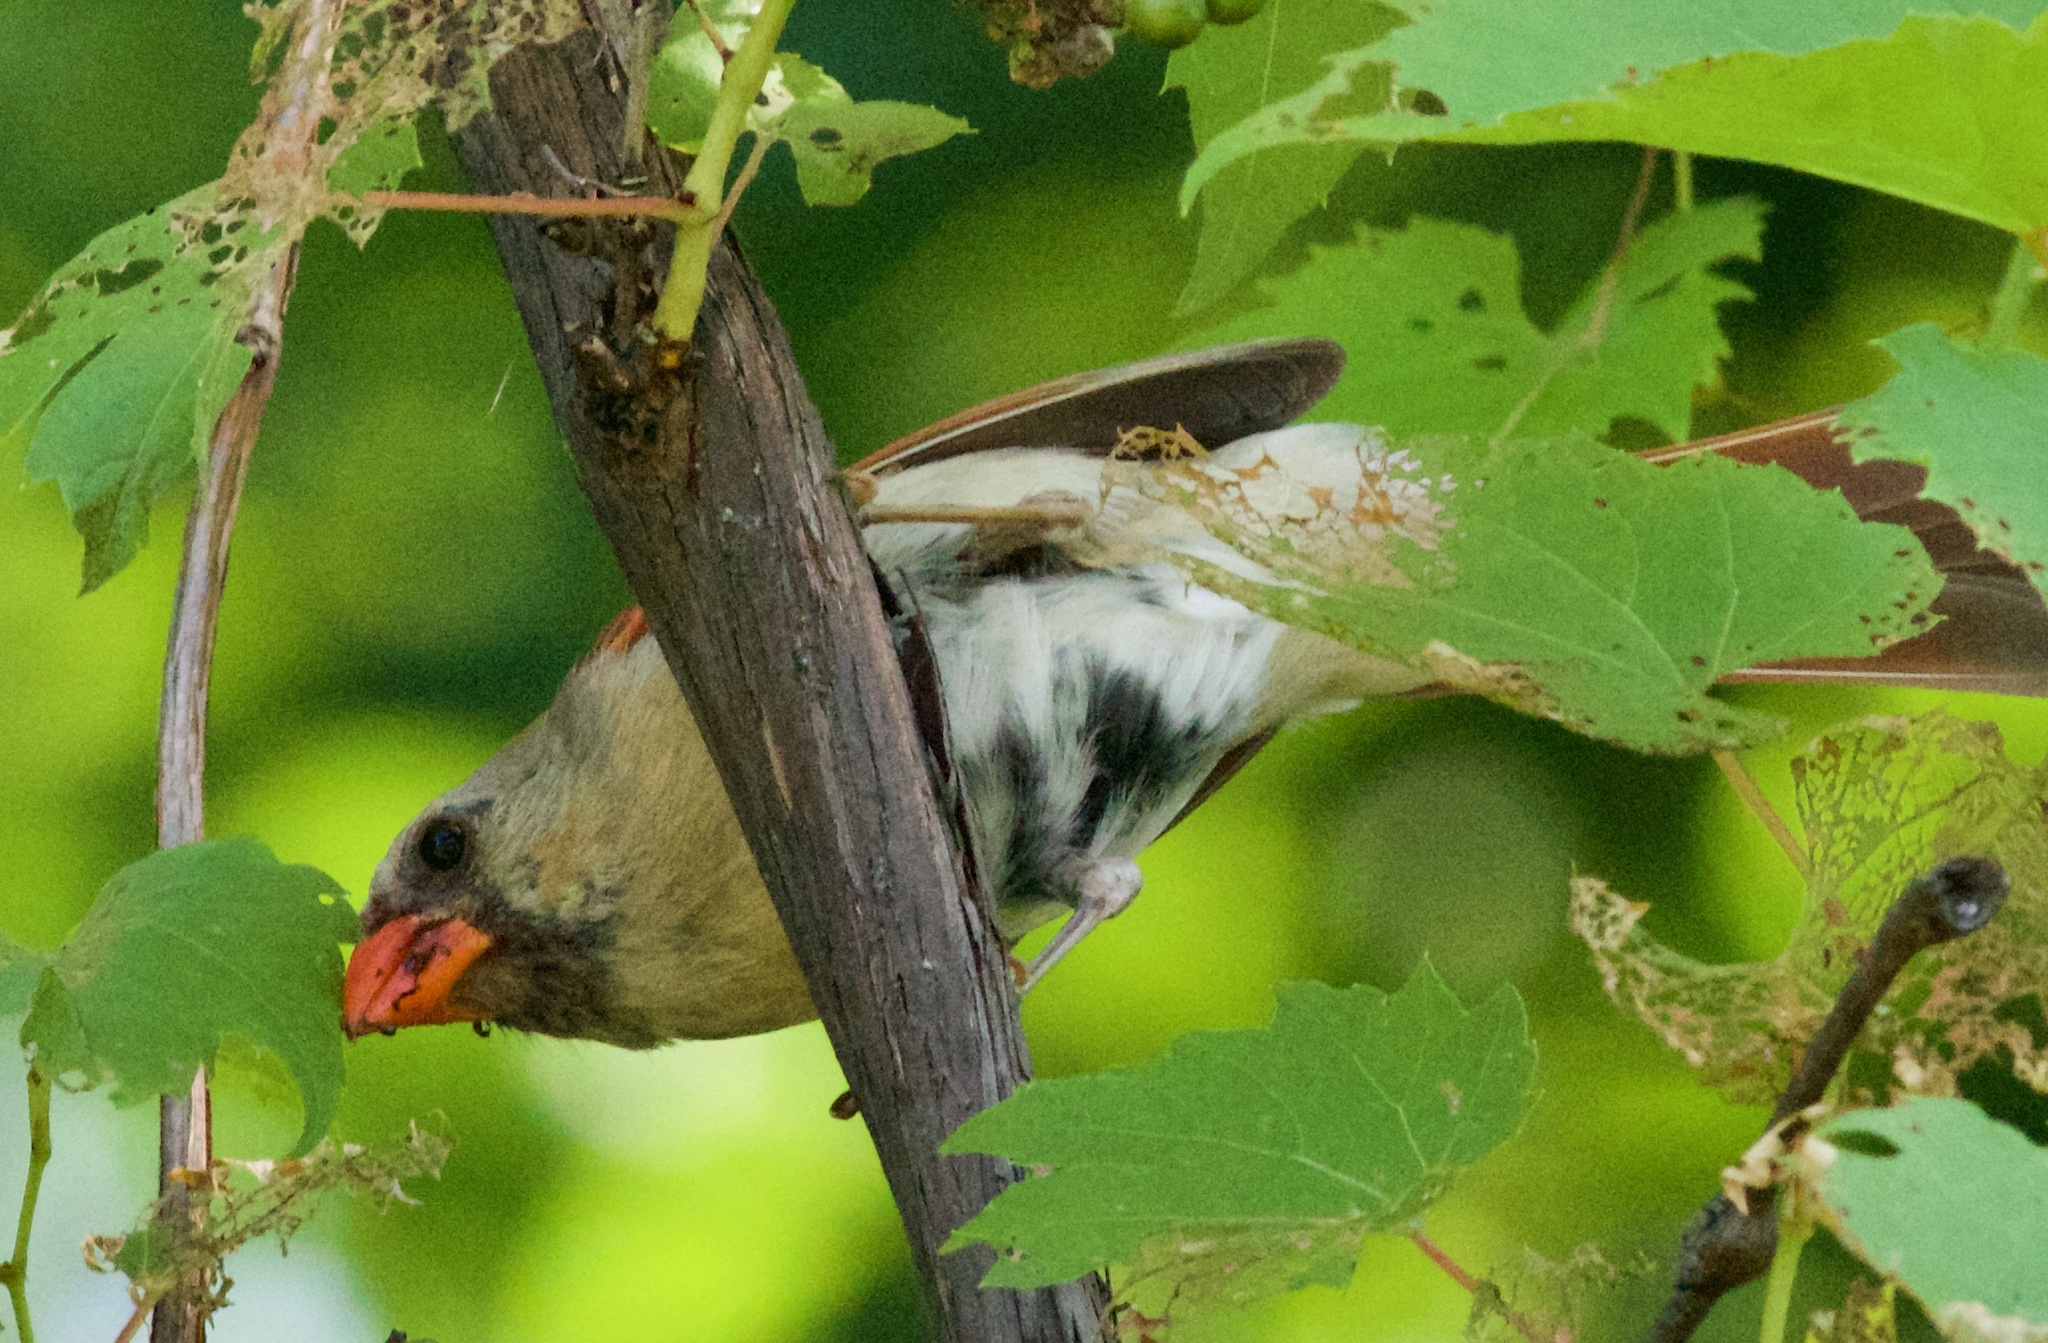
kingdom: Animalia
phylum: Chordata
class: Aves
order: Passeriformes
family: Cardinalidae
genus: Cardinalis
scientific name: Cardinalis cardinalis
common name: Northern cardinal
